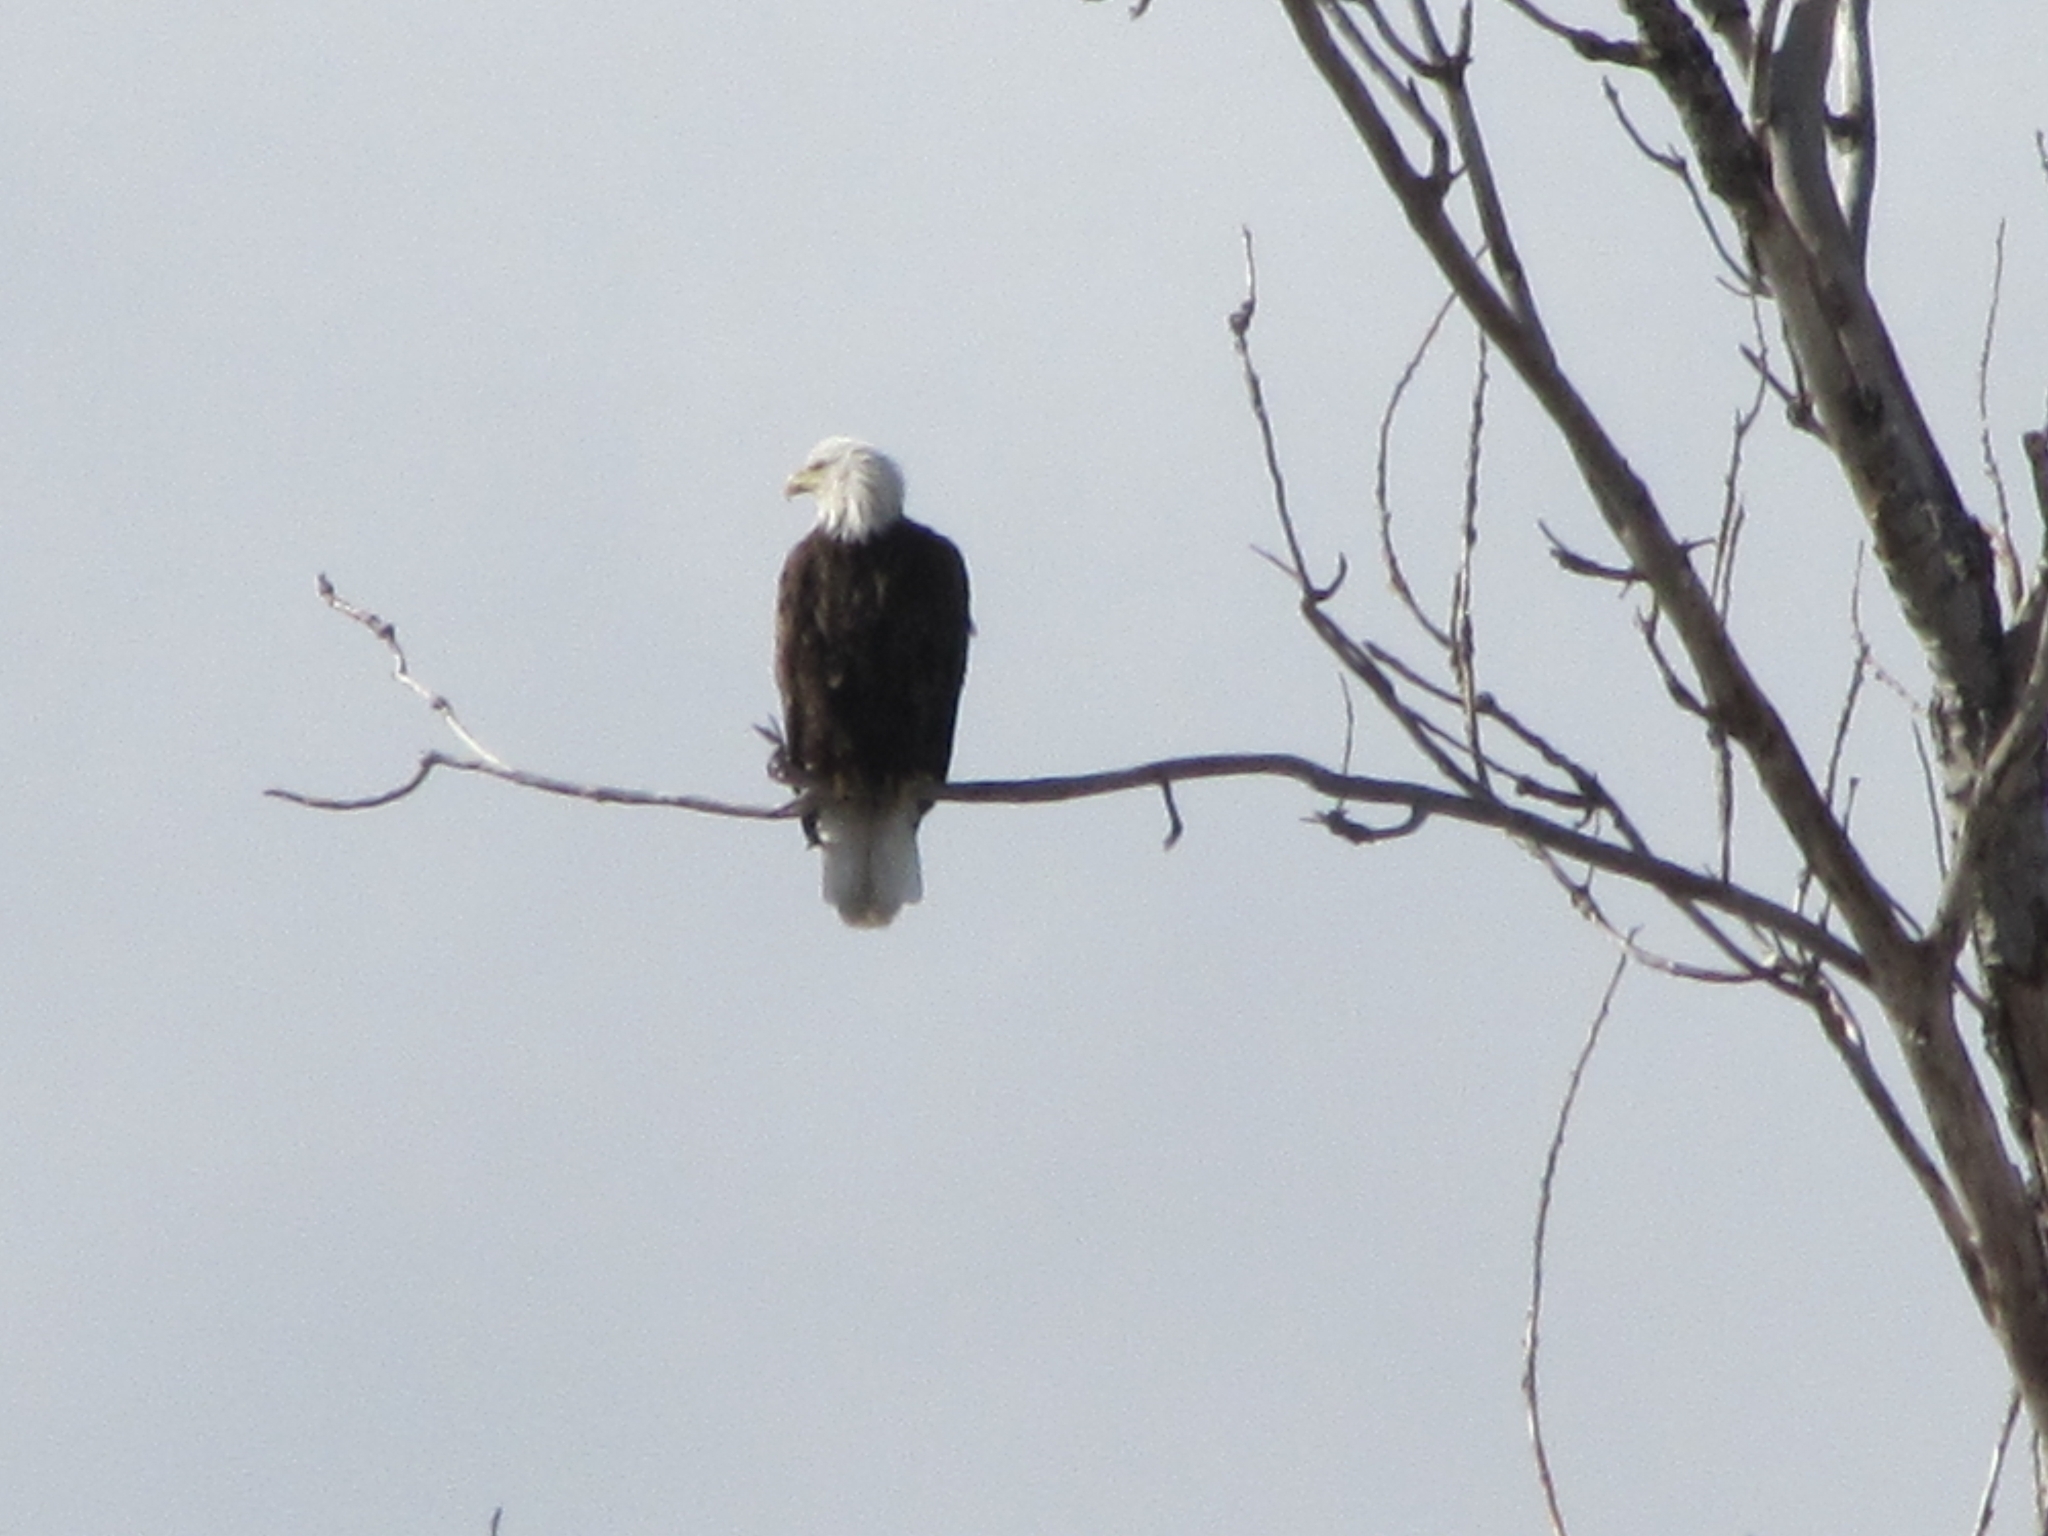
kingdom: Animalia
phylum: Chordata
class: Aves
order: Accipitriformes
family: Accipitridae
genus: Haliaeetus
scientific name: Haliaeetus leucocephalus
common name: Bald eagle
